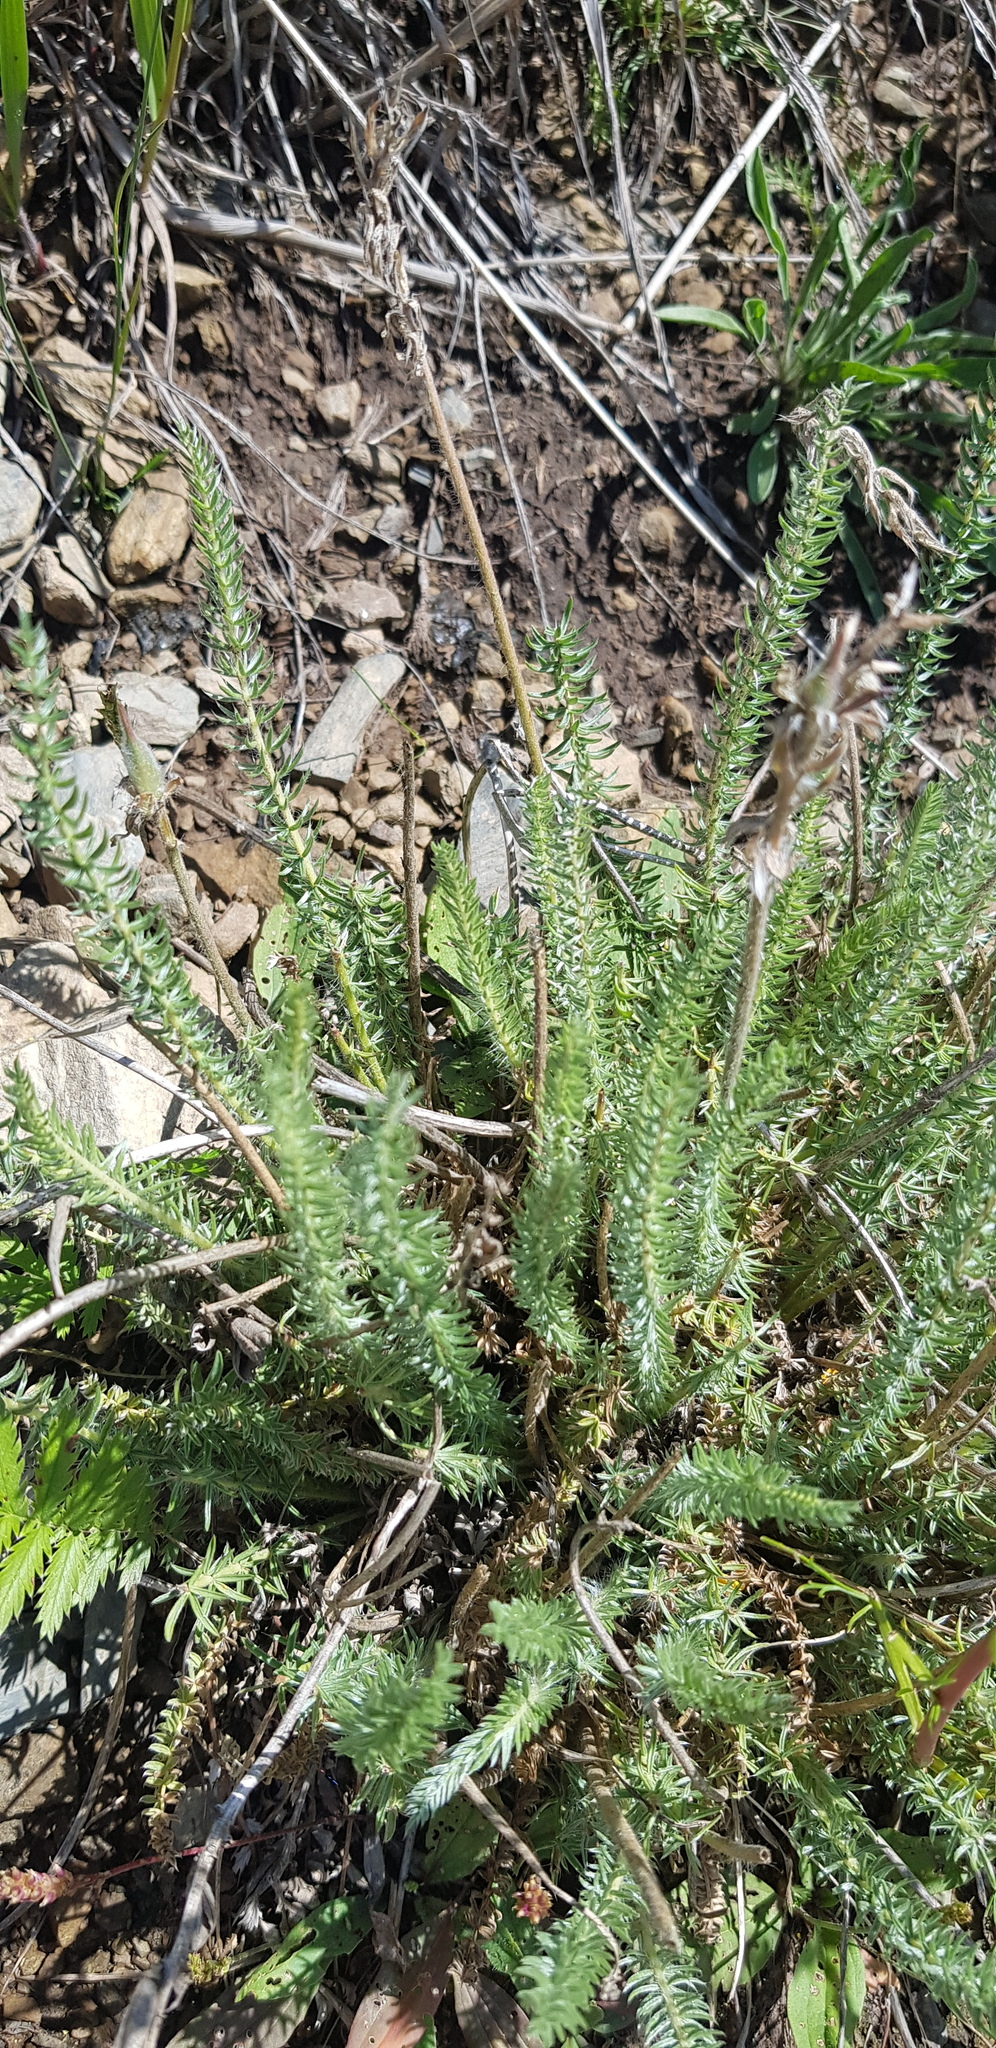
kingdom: Plantae
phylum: Tracheophyta
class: Magnoliopsida
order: Fabales
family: Fabaceae
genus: Oxytropis
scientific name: Oxytropis myriophylla
